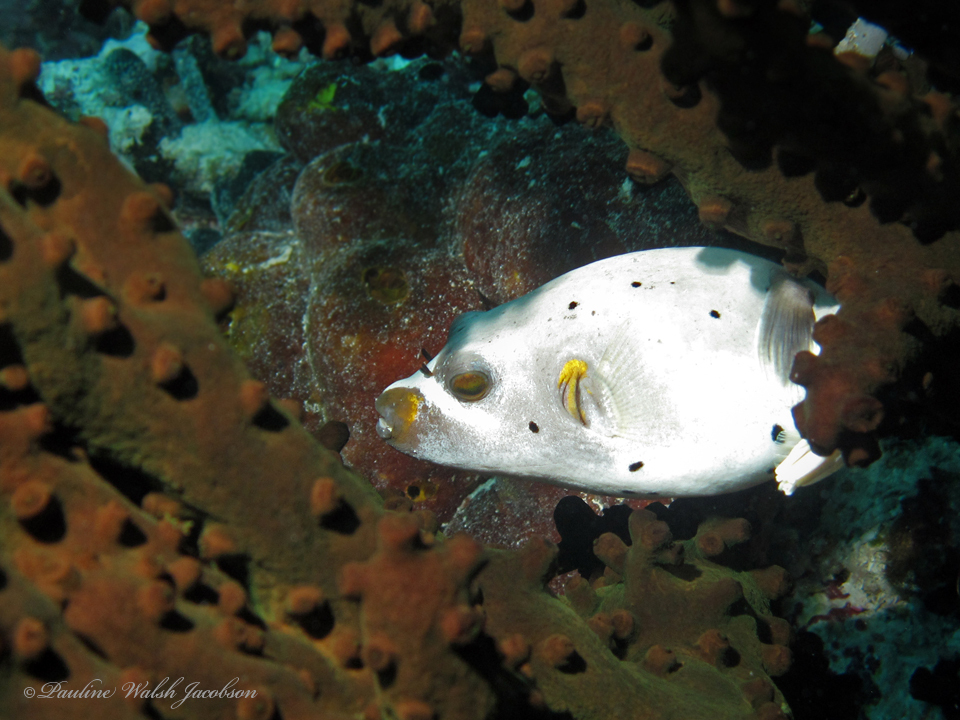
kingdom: Animalia
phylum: Chordata
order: Tetraodontiformes
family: Tetraodontidae
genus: Arothron
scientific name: Arothron nigropunctatus
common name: Black spotted blow fish
